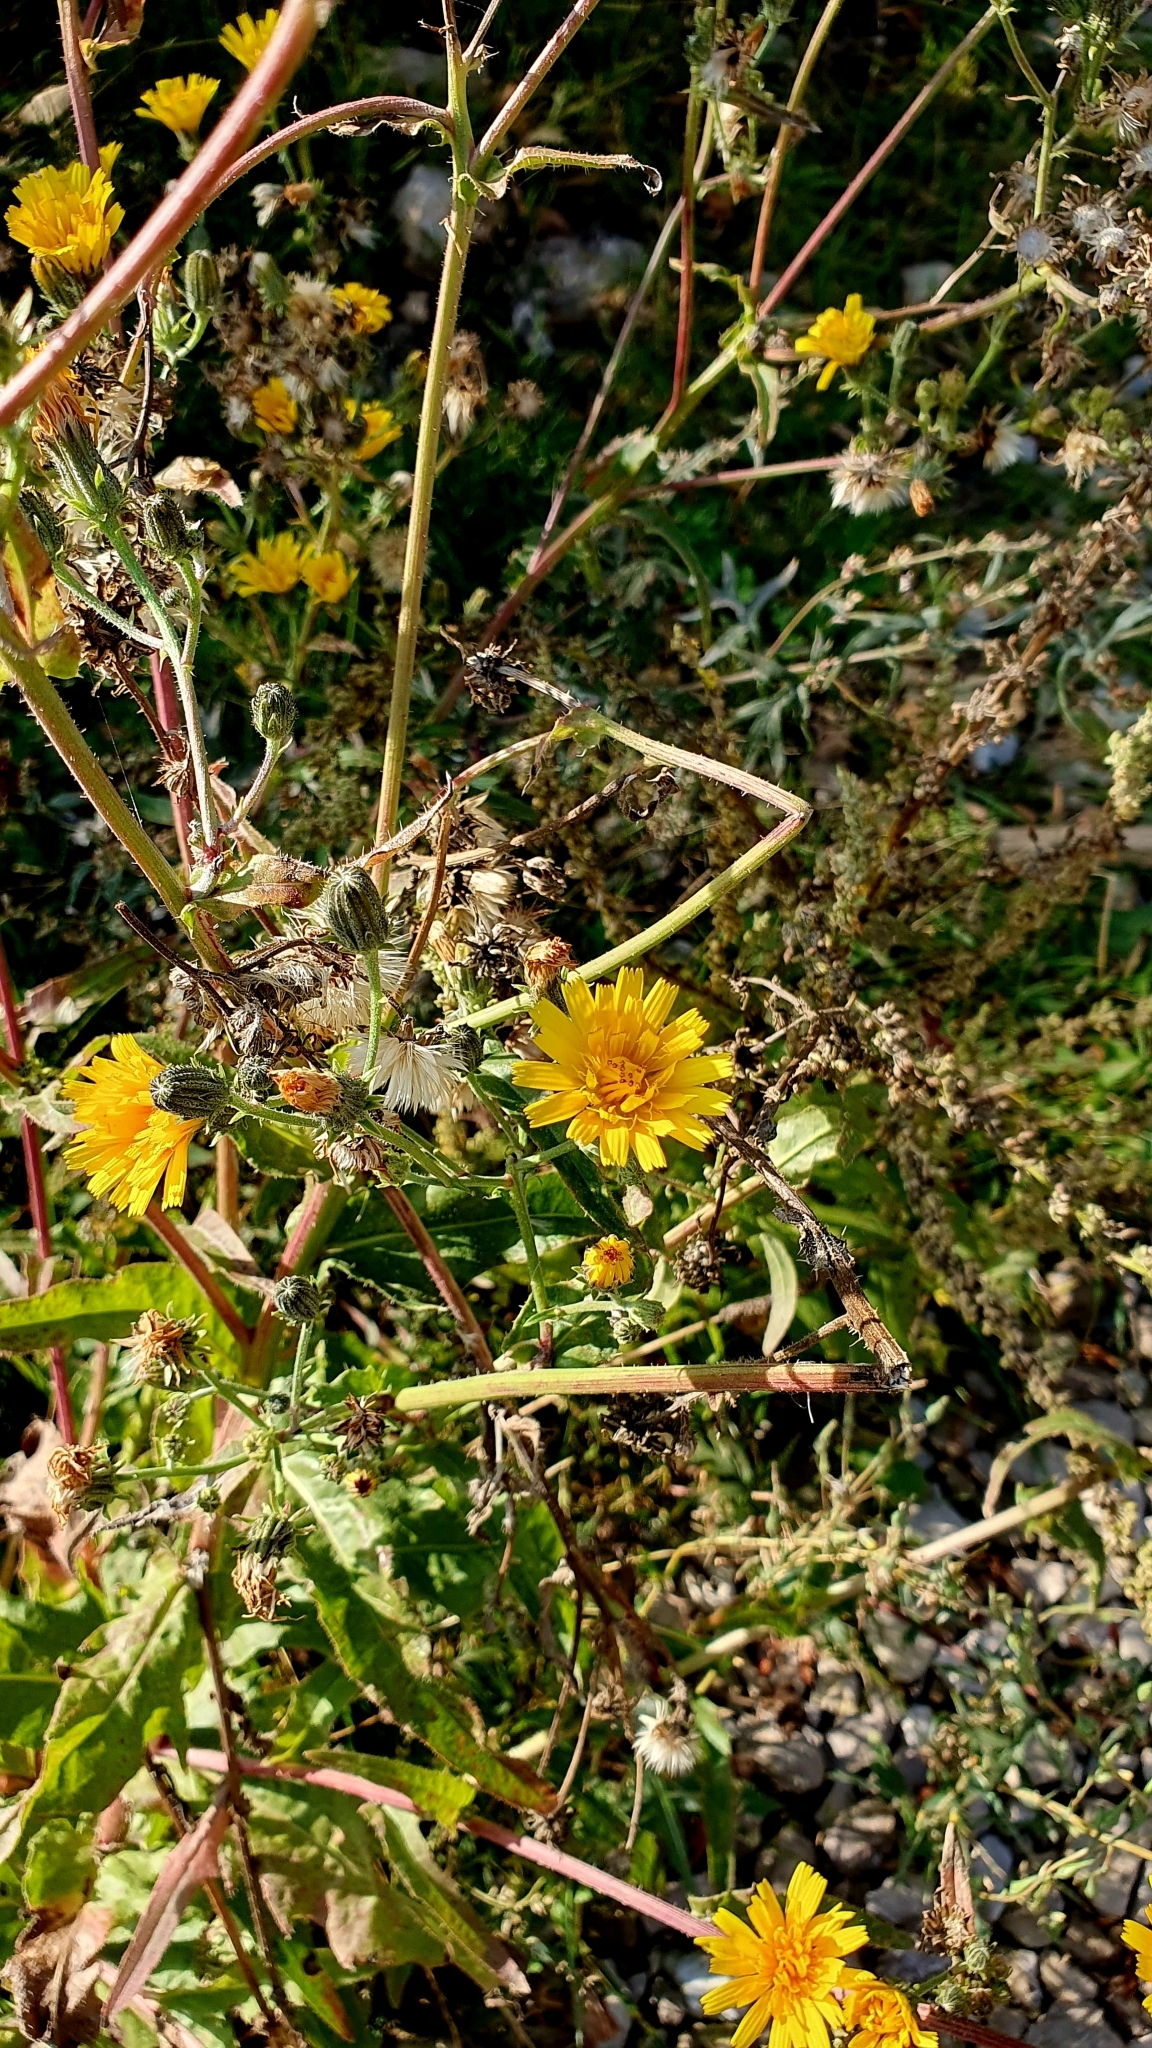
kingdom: Plantae
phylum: Tracheophyta
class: Magnoliopsida
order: Asterales
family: Asteraceae
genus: Picris
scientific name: Picris hieracioides
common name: Hawkweed oxtongue
